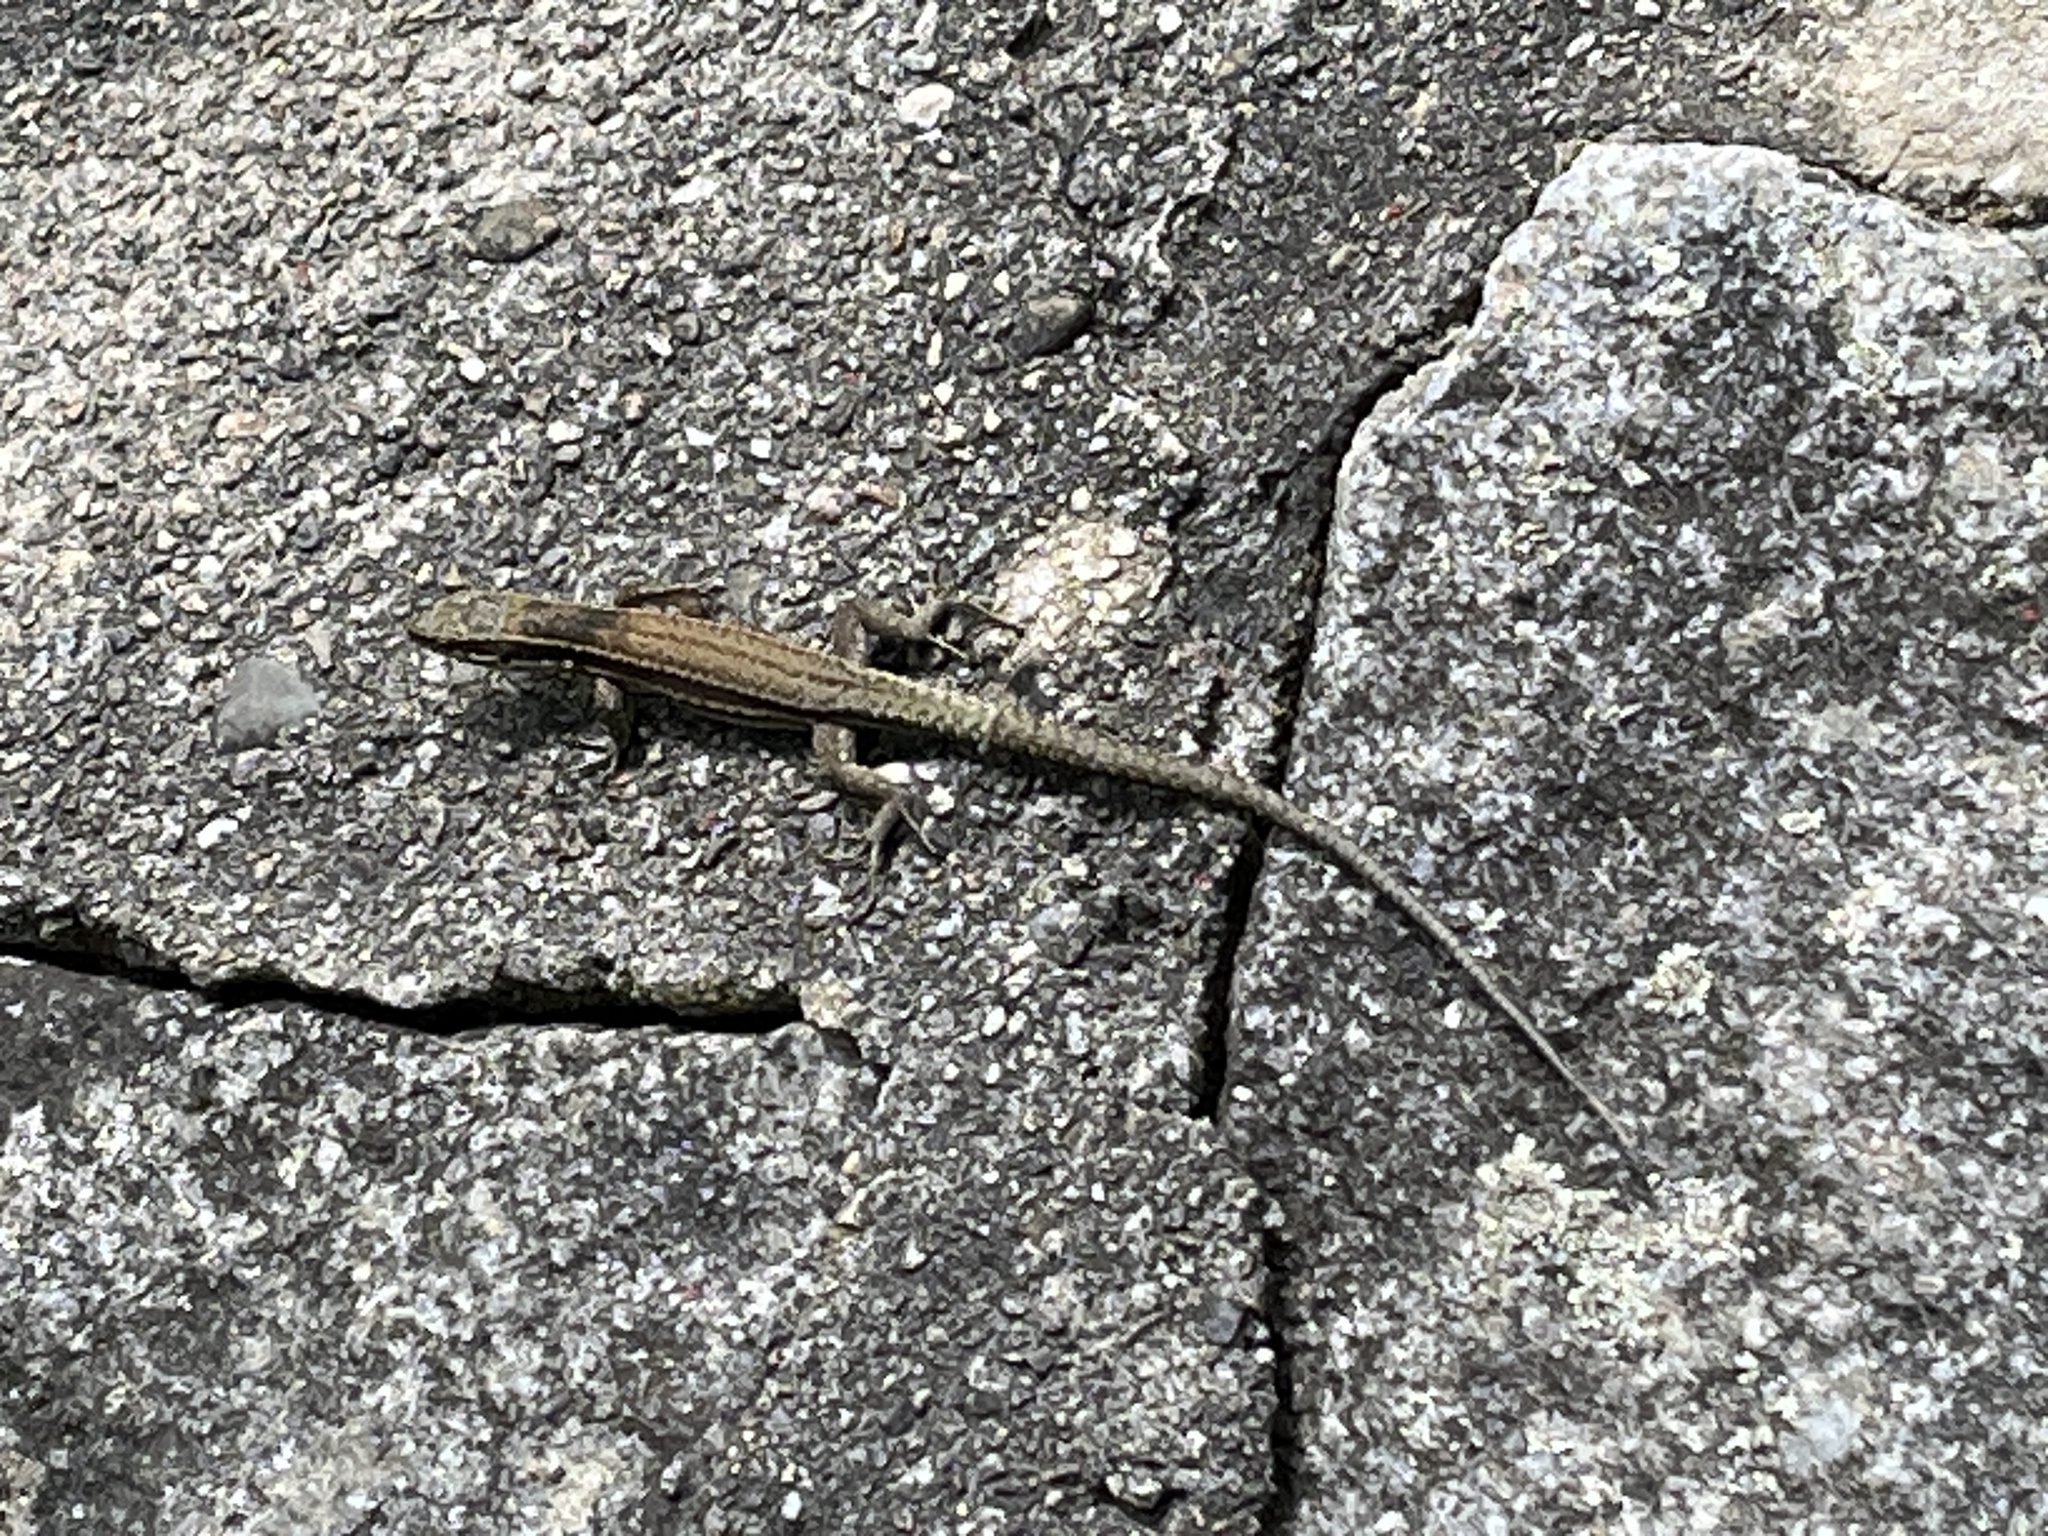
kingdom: Animalia
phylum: Chordata
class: Squamata
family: Lacertidae
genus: Podarcis
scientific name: Podarcis muralis
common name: Common wall lizard
